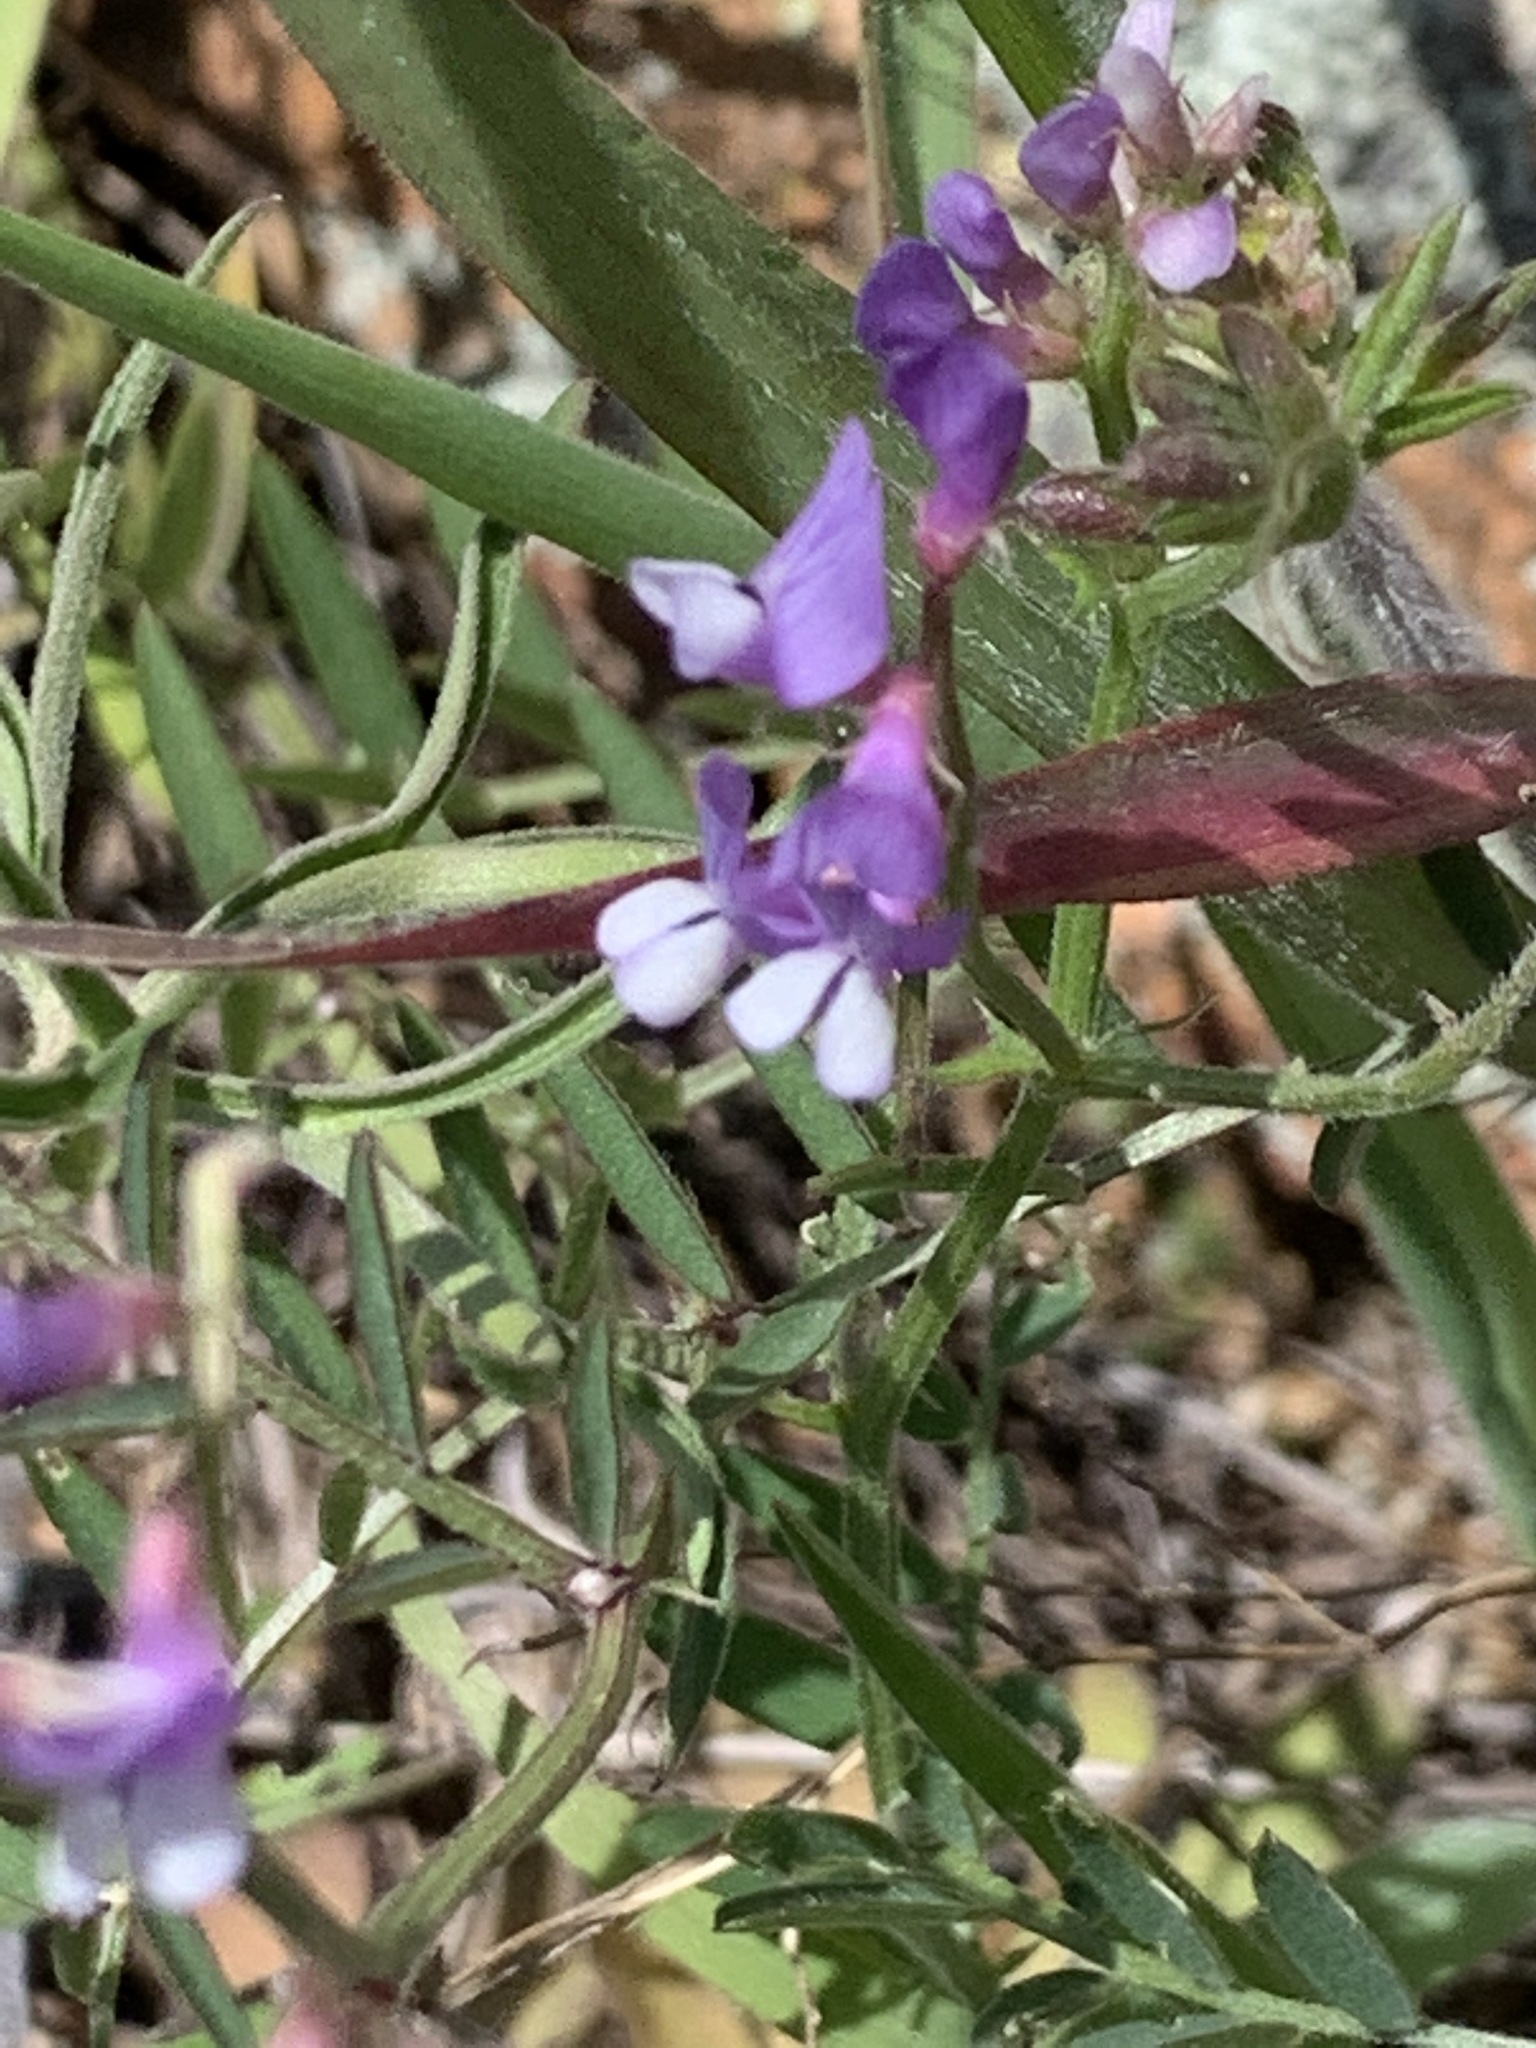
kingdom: Plantae
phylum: Tracheophyta
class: Magnoliopsida
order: Fabales
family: Fabaceae
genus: Vicia
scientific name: Vicia ludoviciana
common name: Louisiana vetch
